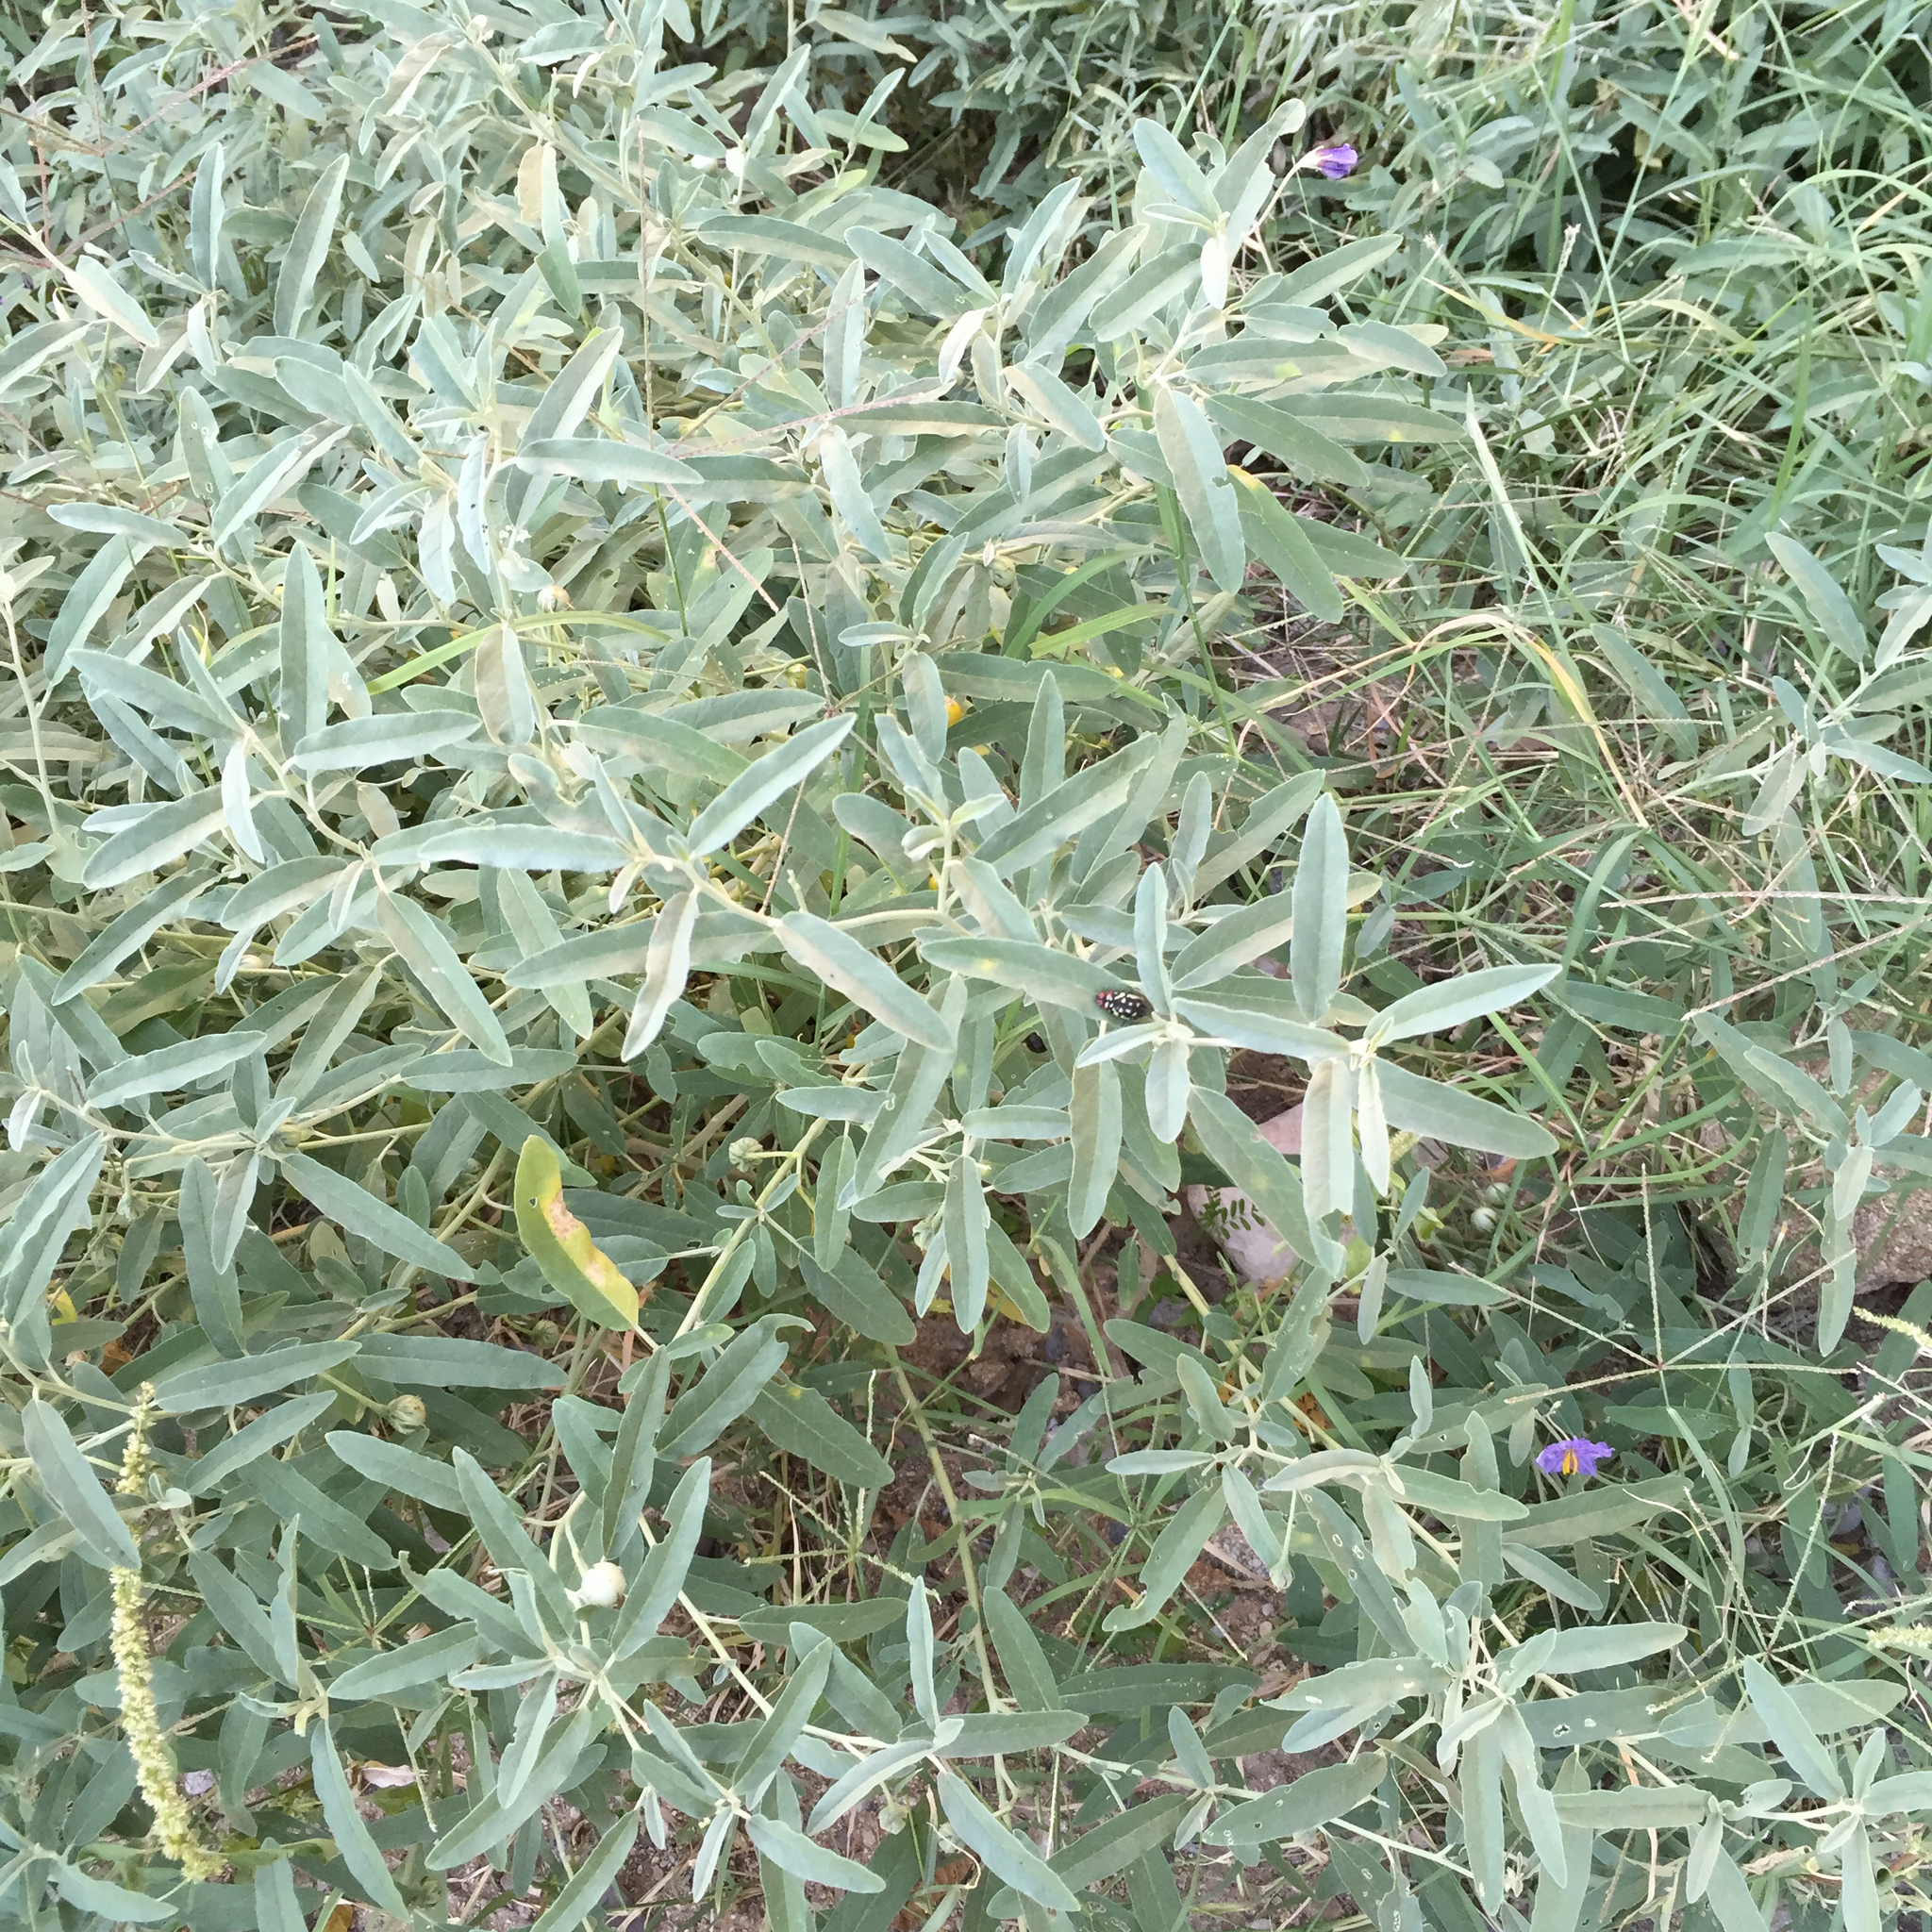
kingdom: Plantae
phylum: Tracheophyta
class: Magnoliopsida
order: Solanales
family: Solanaceae
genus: Solanum
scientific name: Solanum elaeagnifolium
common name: Silverleaf nightshade
